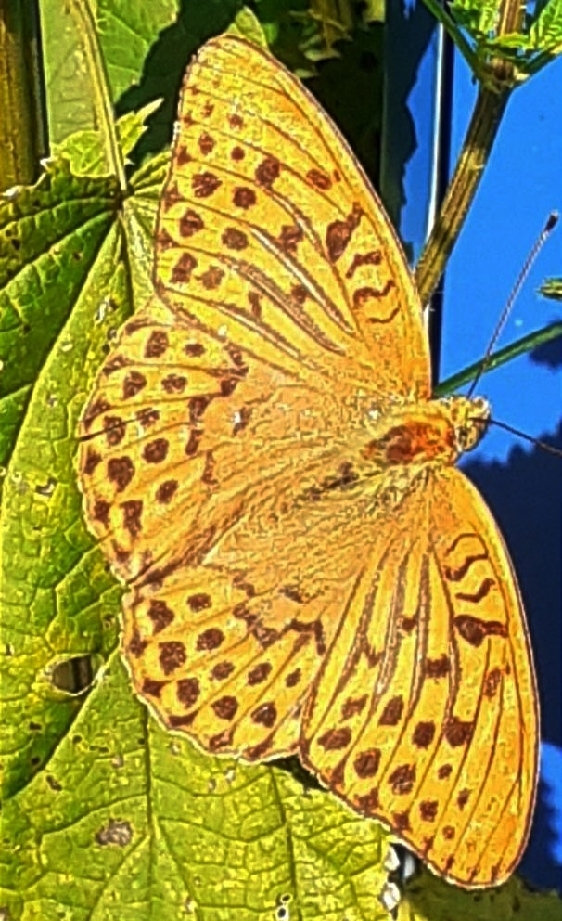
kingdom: Animalia
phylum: Arthropoda
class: Insecta
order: Lepidoptera
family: Nymphalidae
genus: Argynnis
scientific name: Argynnis paphia
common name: Silver-washed fritillary
